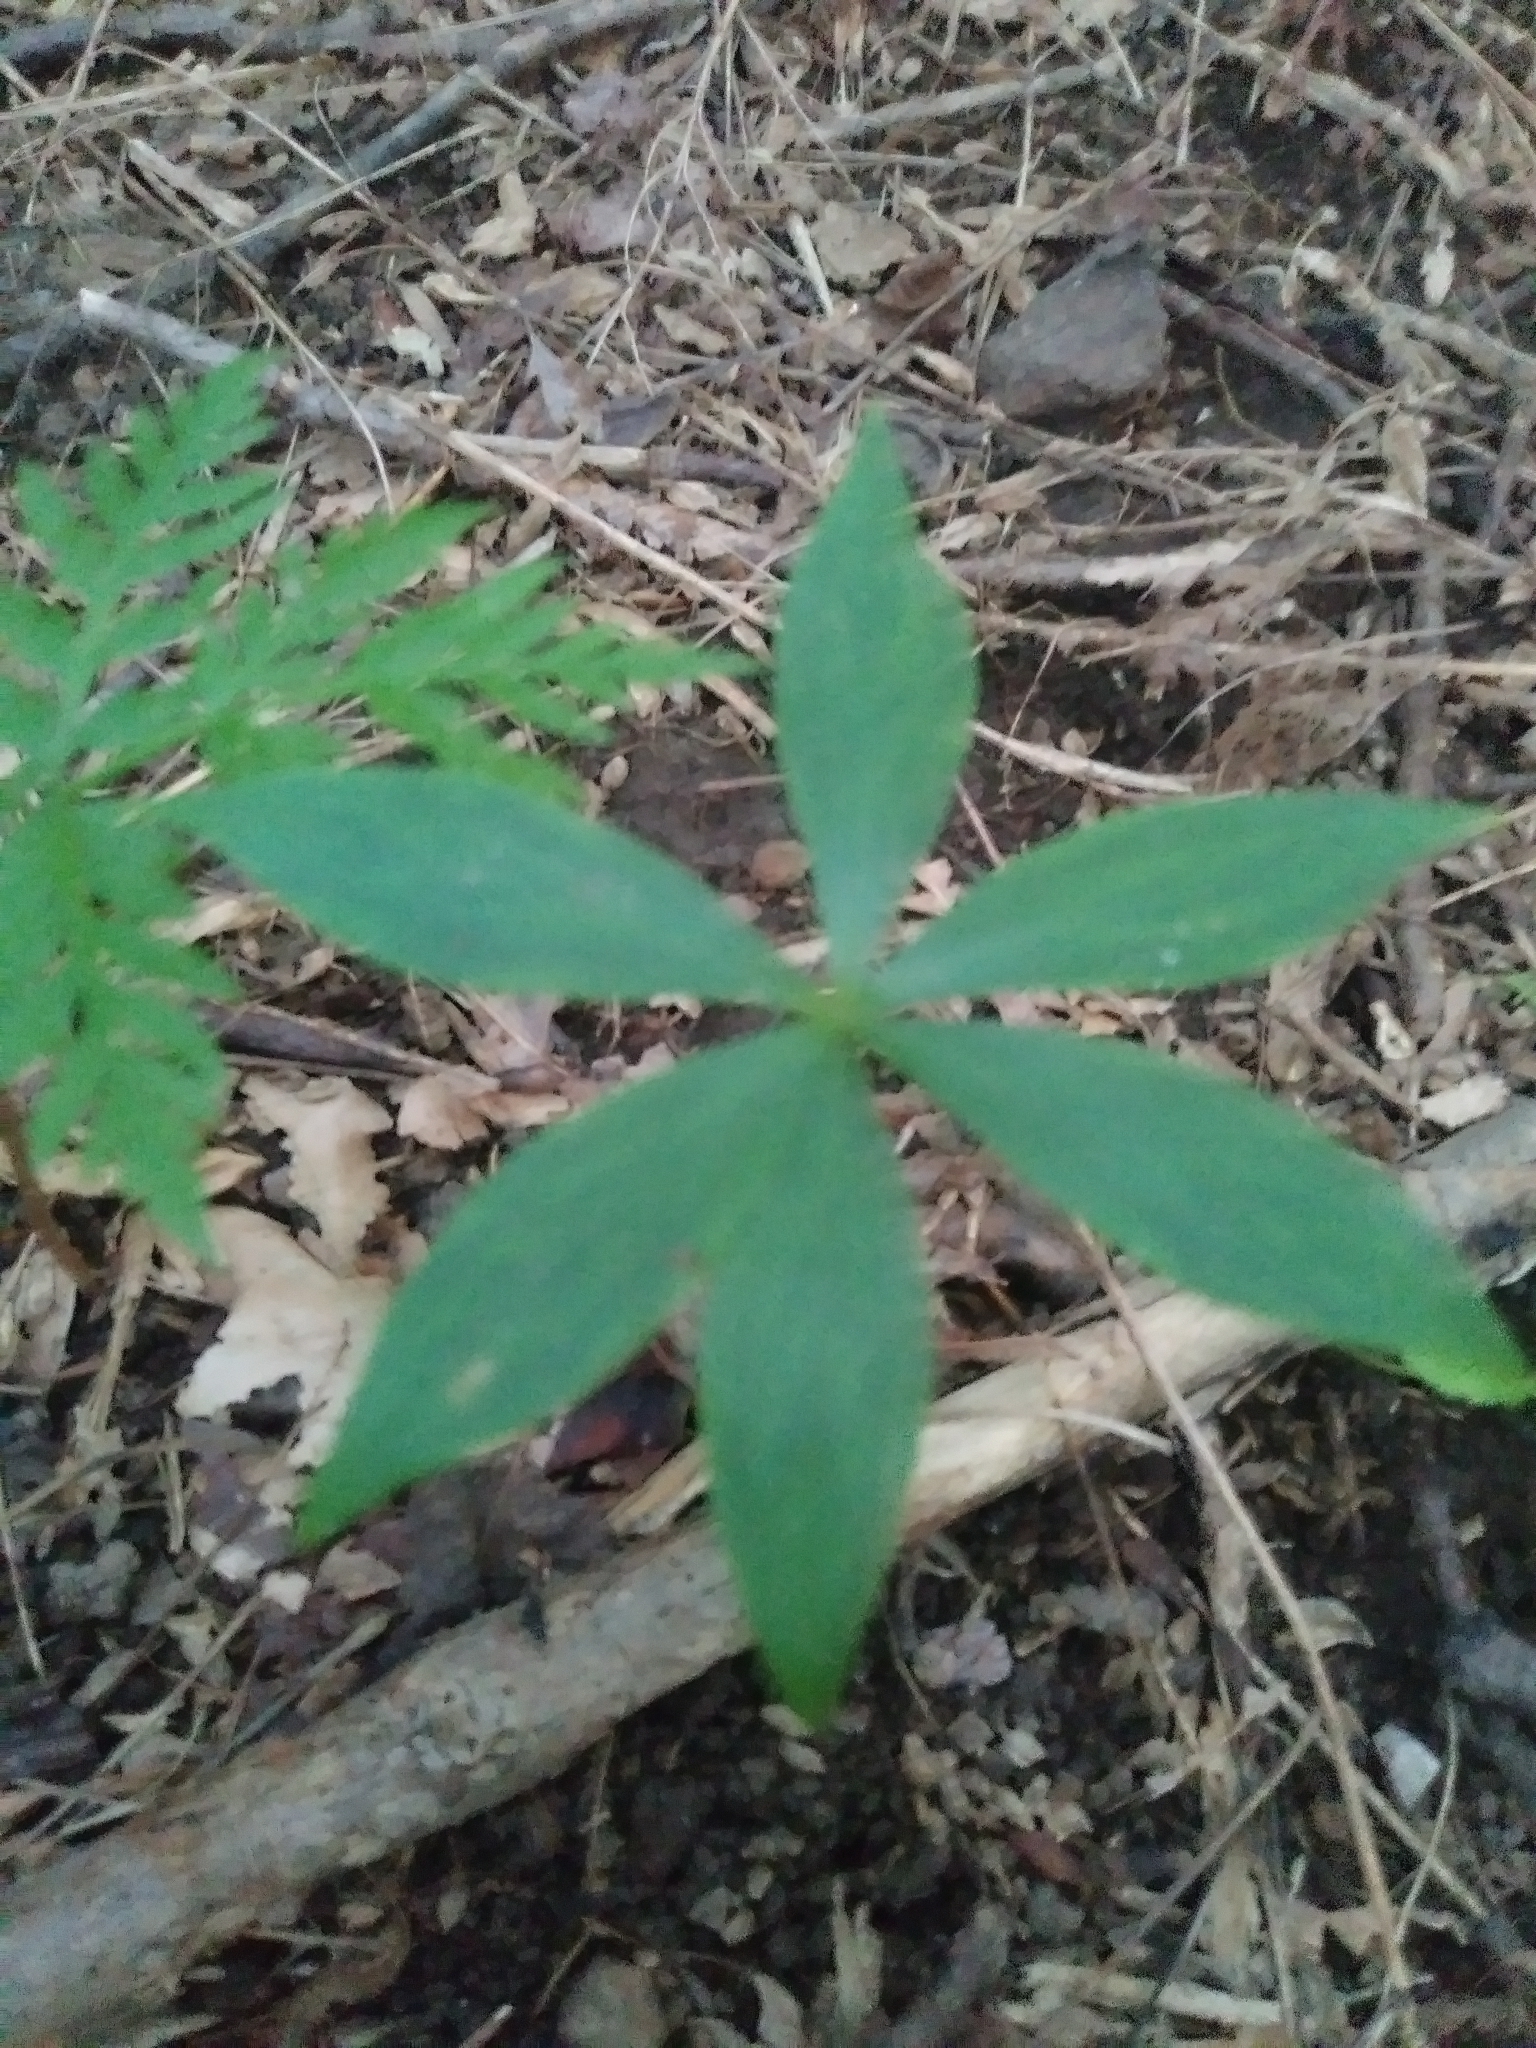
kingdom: Plantae
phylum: Tracheophyta
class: Liliopsida
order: Liliales
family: Liliaceae
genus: Medeola
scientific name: Medeola virginiana
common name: Indian cucumber-root
